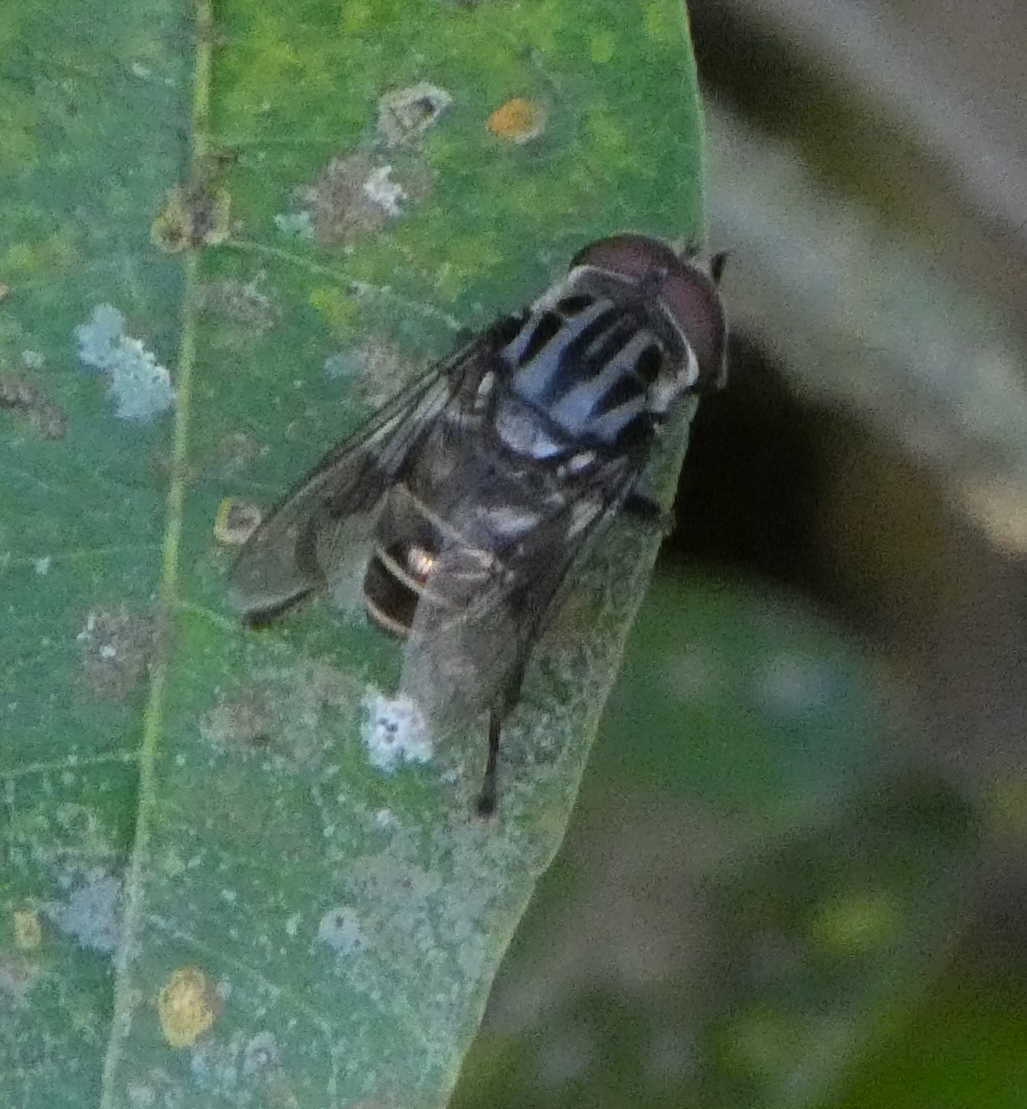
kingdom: Animalia
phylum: Arthropoda
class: Insecta
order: Diptera
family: Syrphidae
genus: Palpada
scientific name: Palpada furcata
